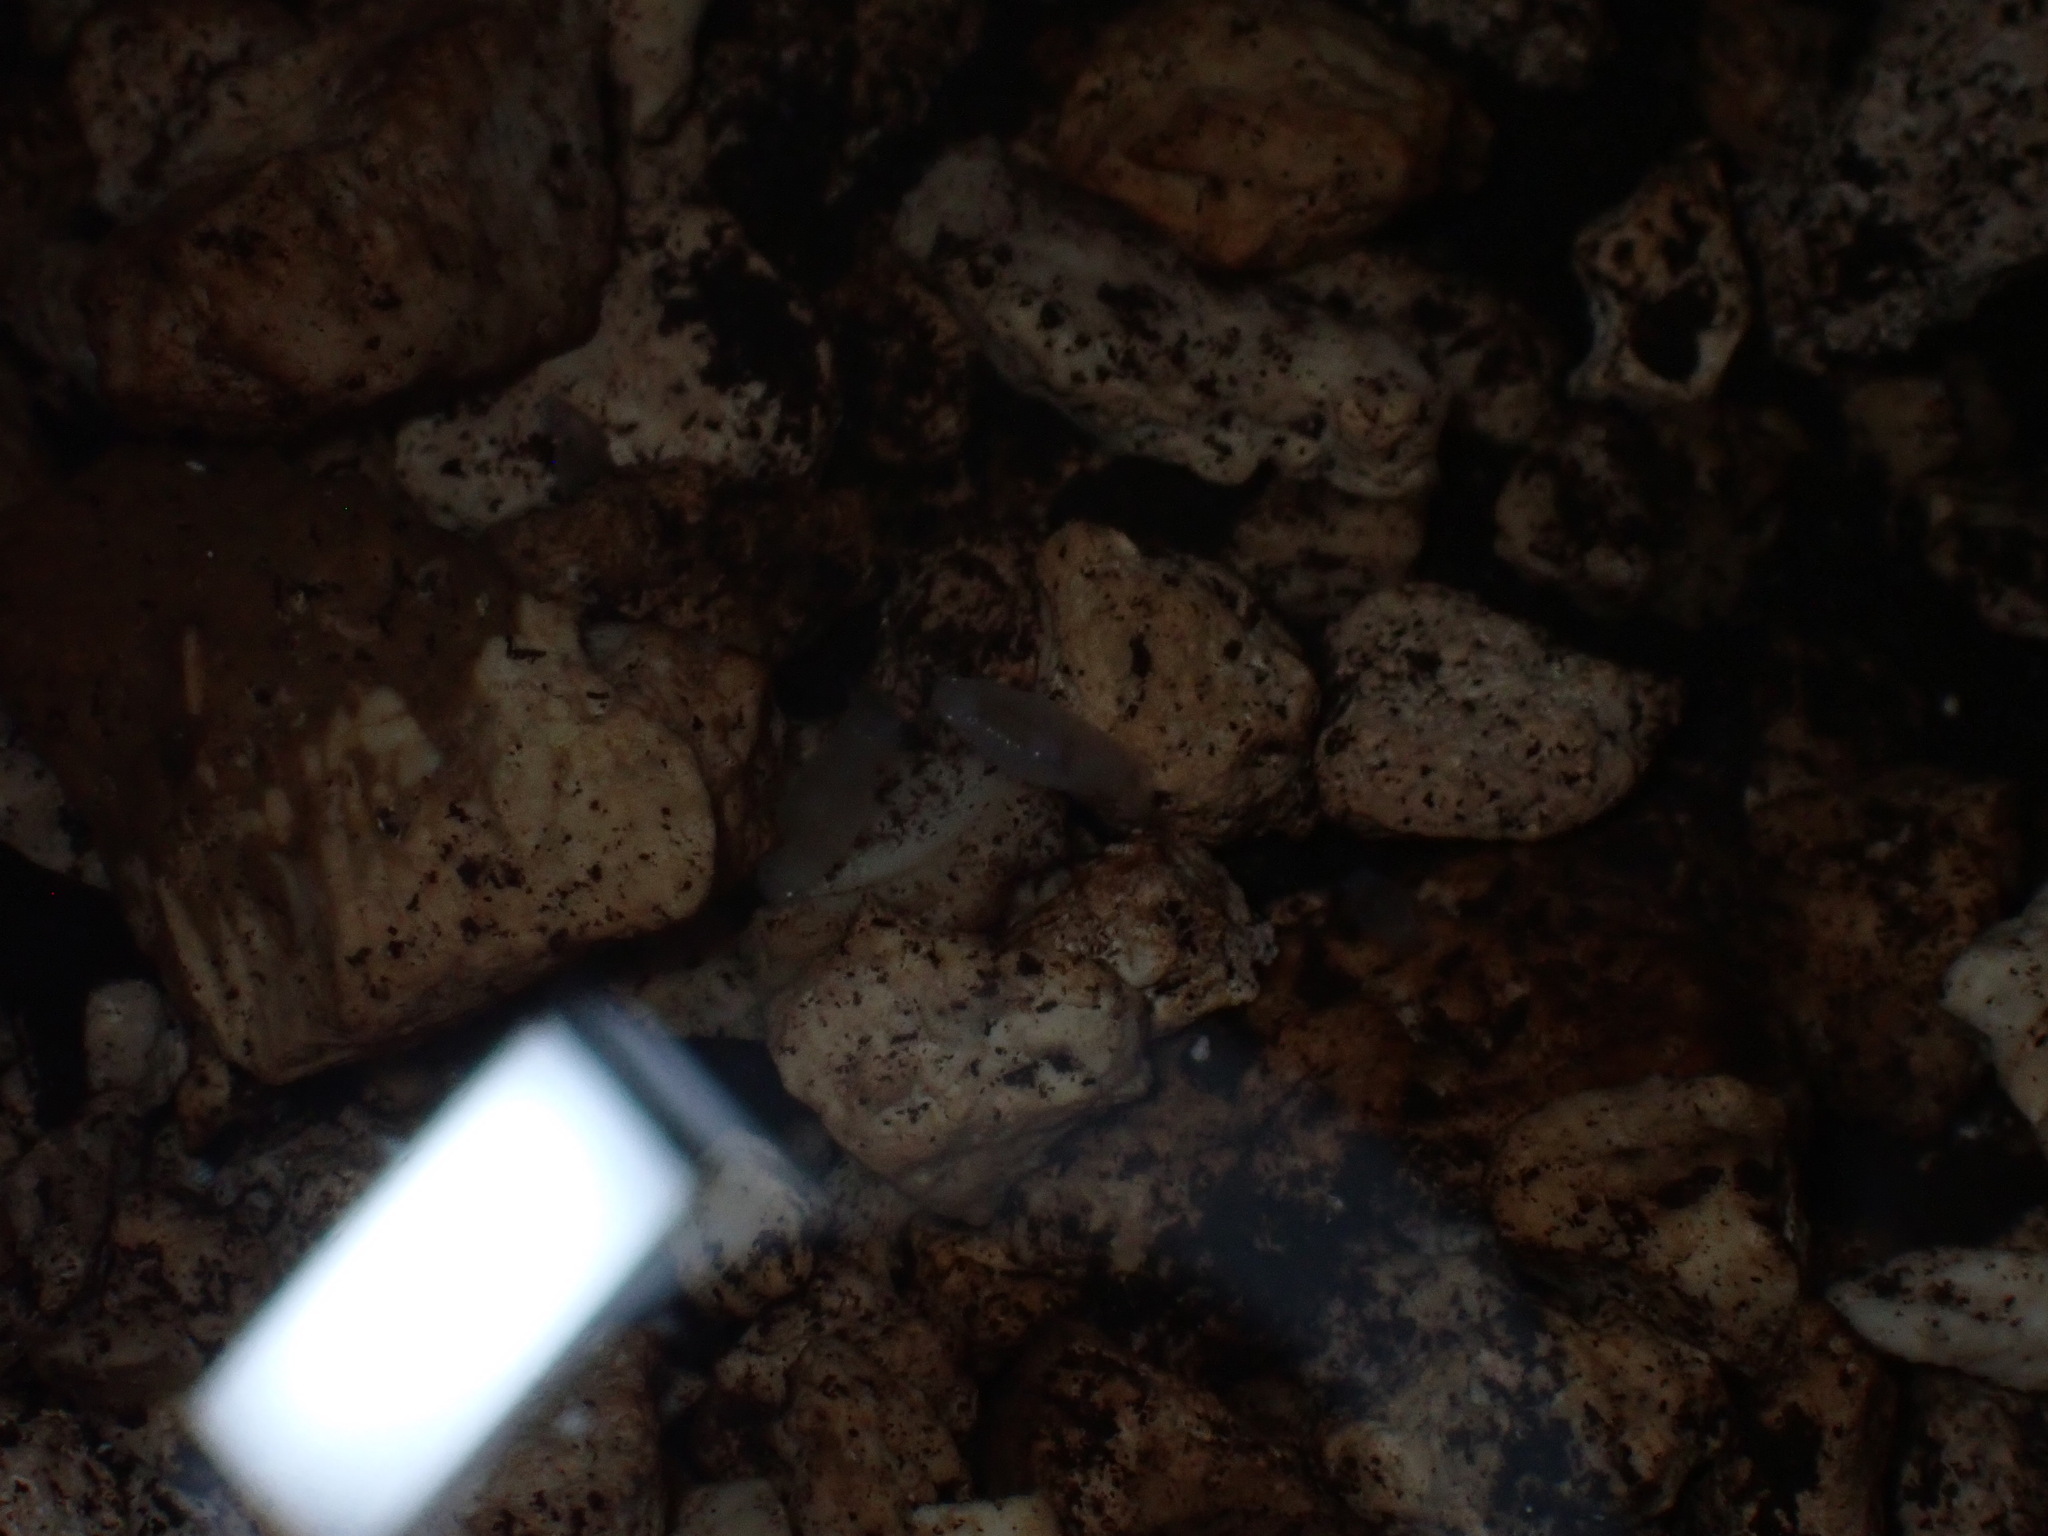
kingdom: Animalia
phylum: Arthropoda
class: Malacostraca
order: Isopoda
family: Cirolanidae
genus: Cirolana
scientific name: Cirolana crenata
